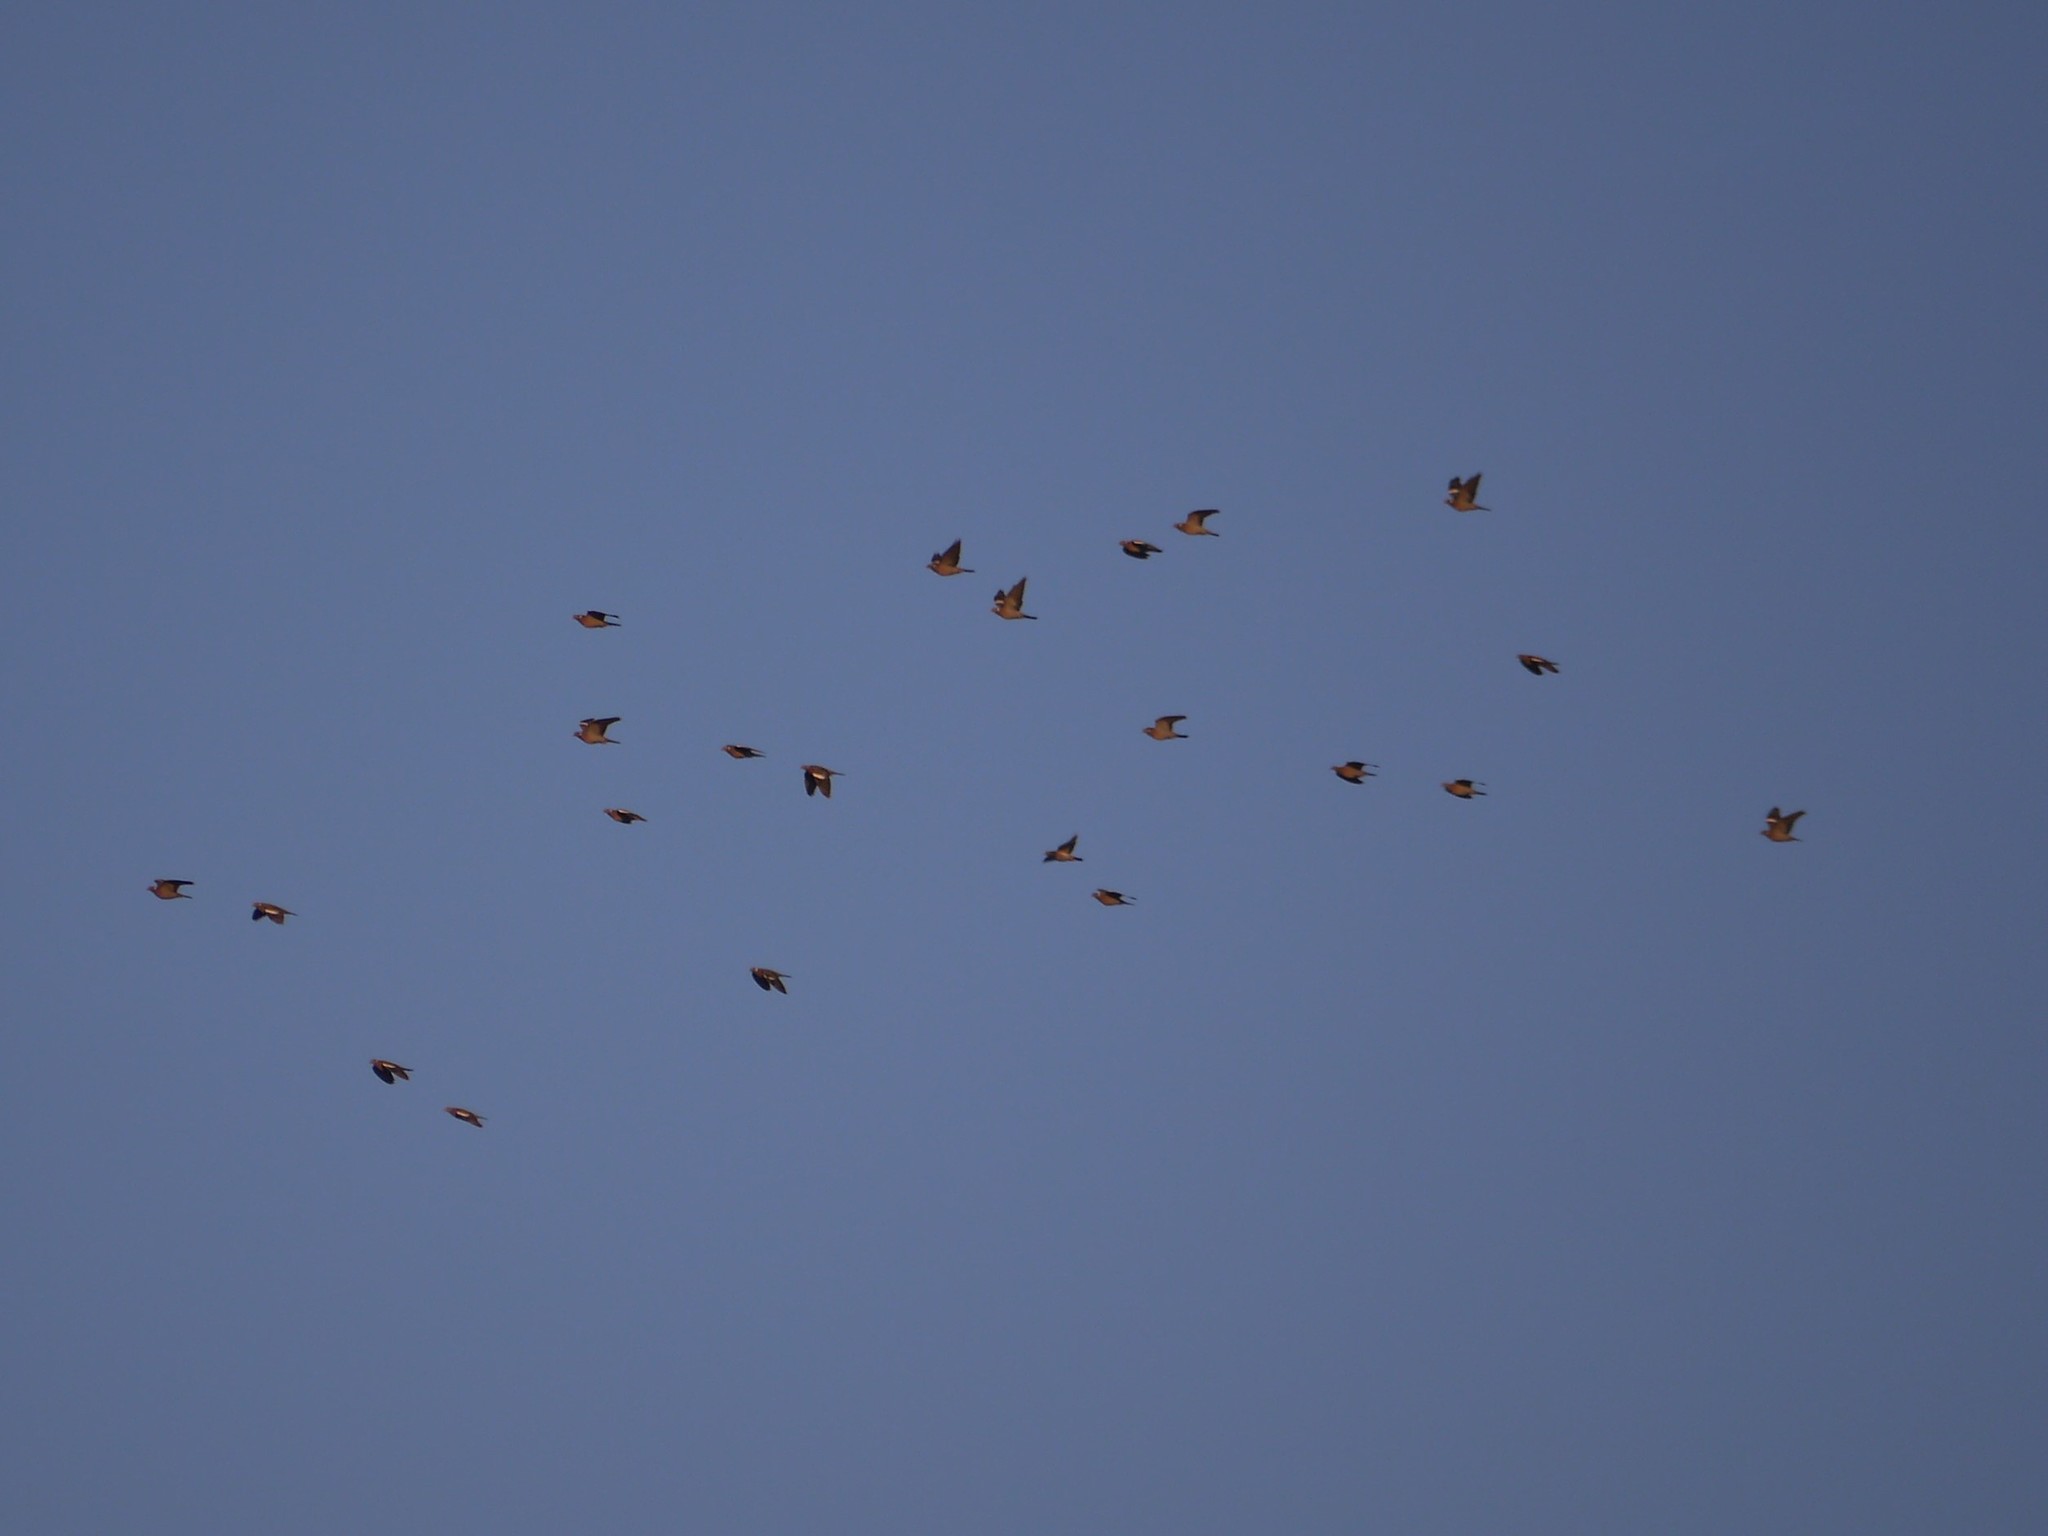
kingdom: Animalia
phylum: Chordata
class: Aves
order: Columbiformes
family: Columbidae
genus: Columba
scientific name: Columba palumbus
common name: Common wood pigeon
